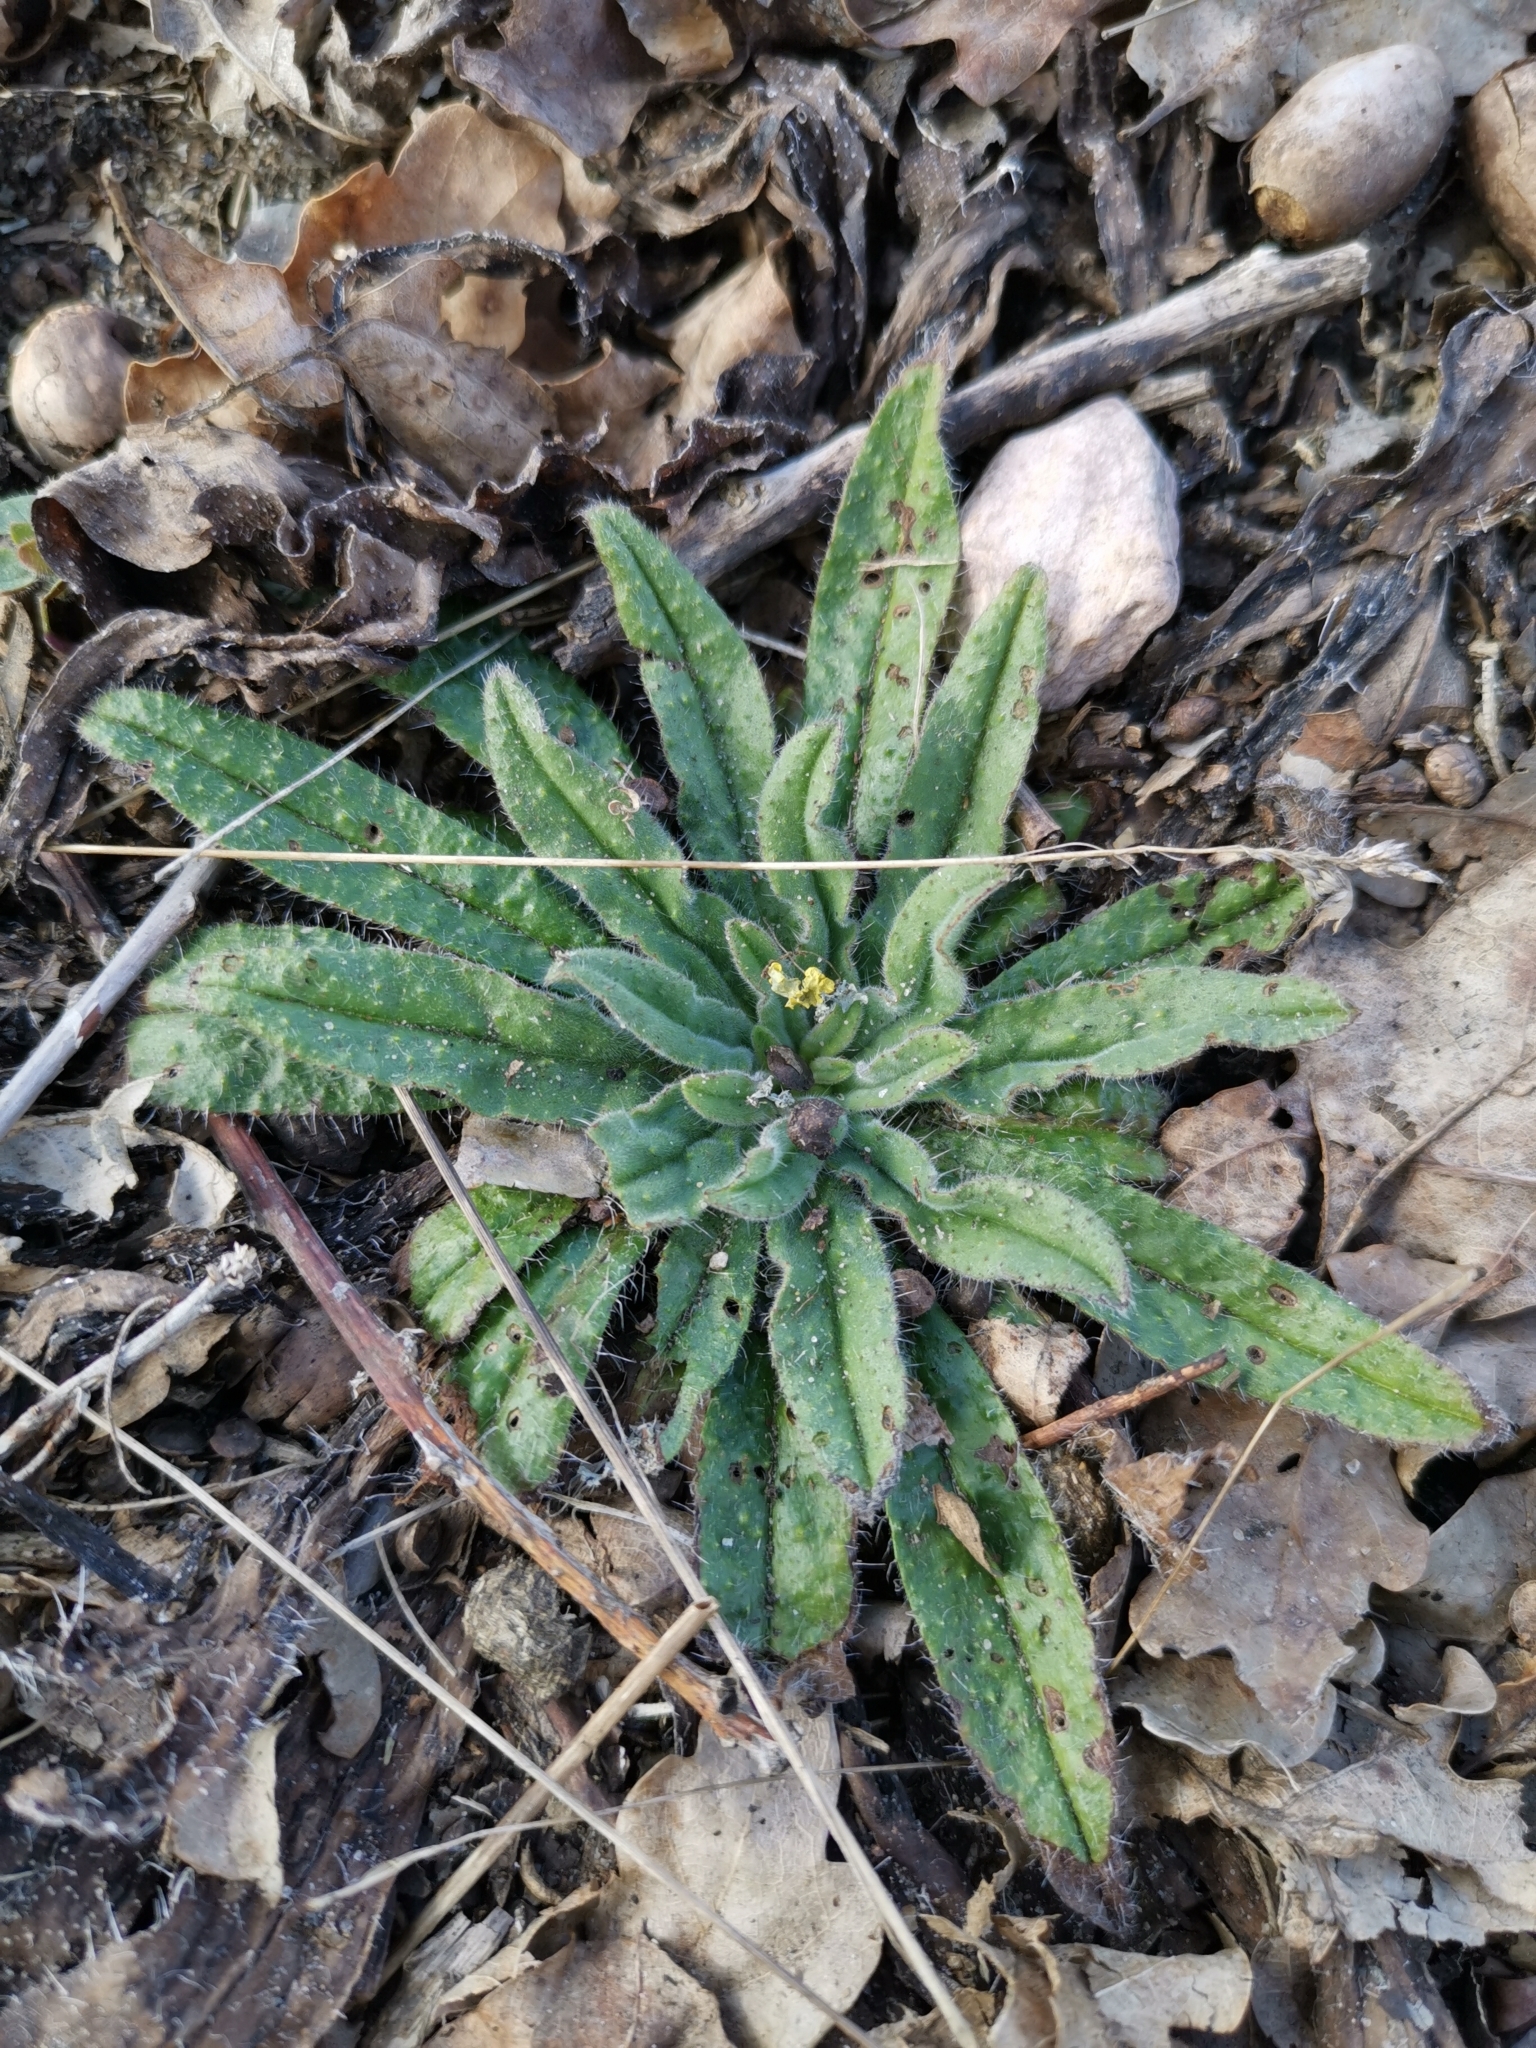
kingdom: Plantae
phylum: Tracheophyta
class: Magnoliopsida
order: Boraginales
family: Boraginaceae
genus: Echium
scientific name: Echium vulgare
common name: Common viper's bugloss
